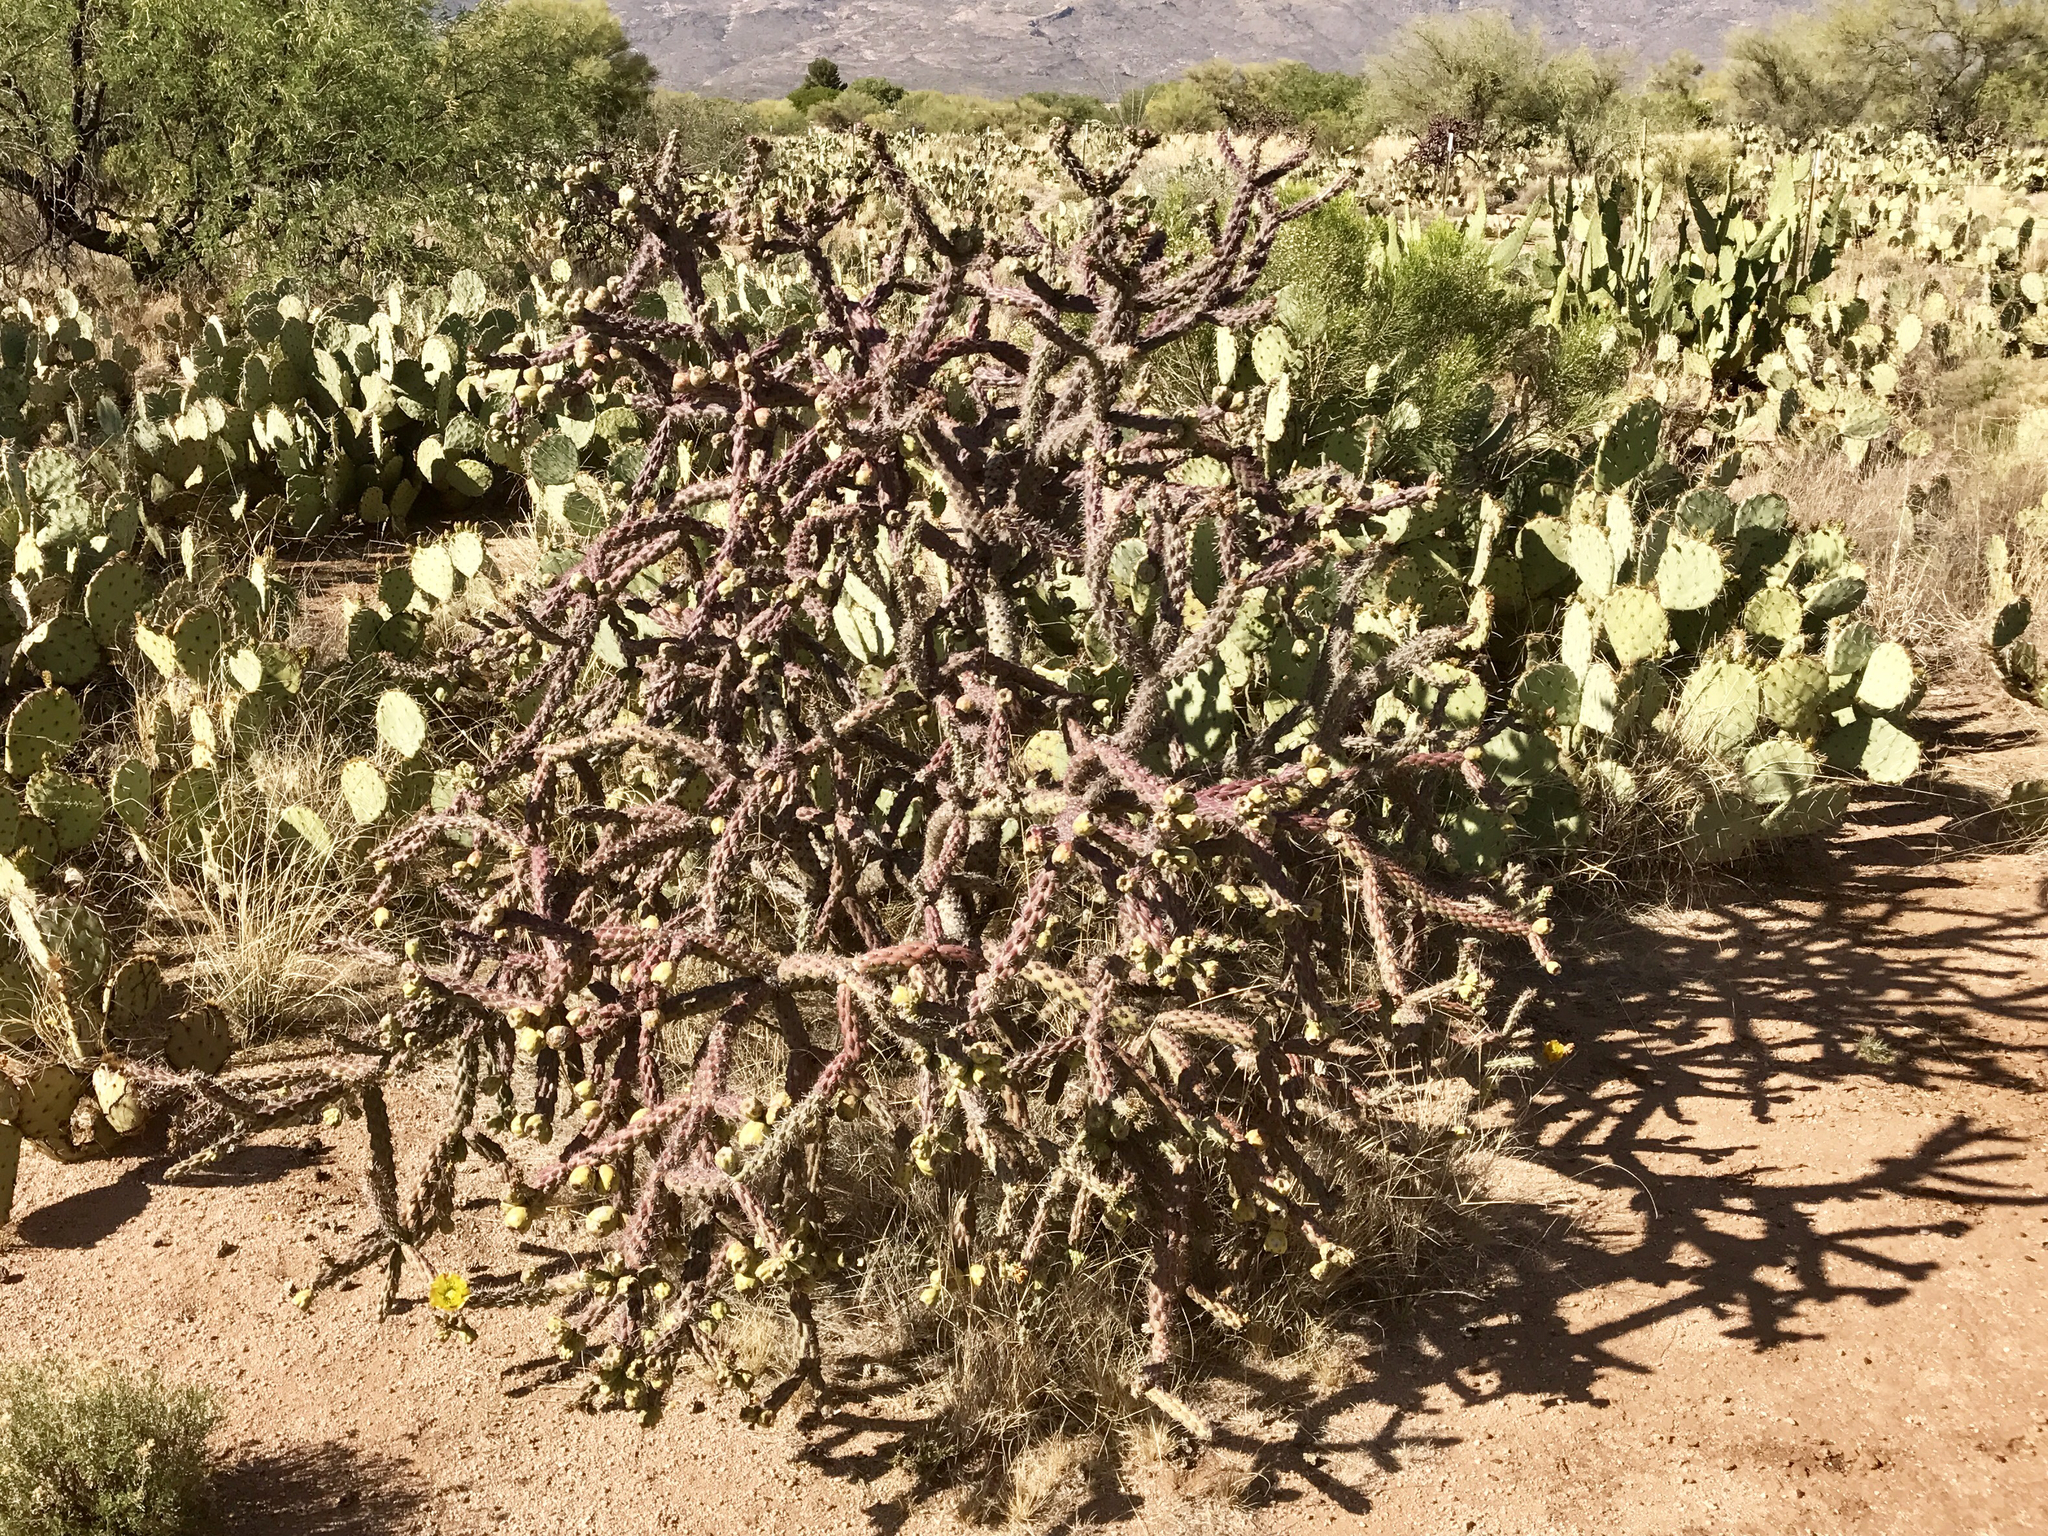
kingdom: Plantae
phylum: Tracheophyta
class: Magnoliopsida
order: Caryophyllales
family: Cactaceae
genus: Cylindropuntia
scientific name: Cylindropuntia thurberi
